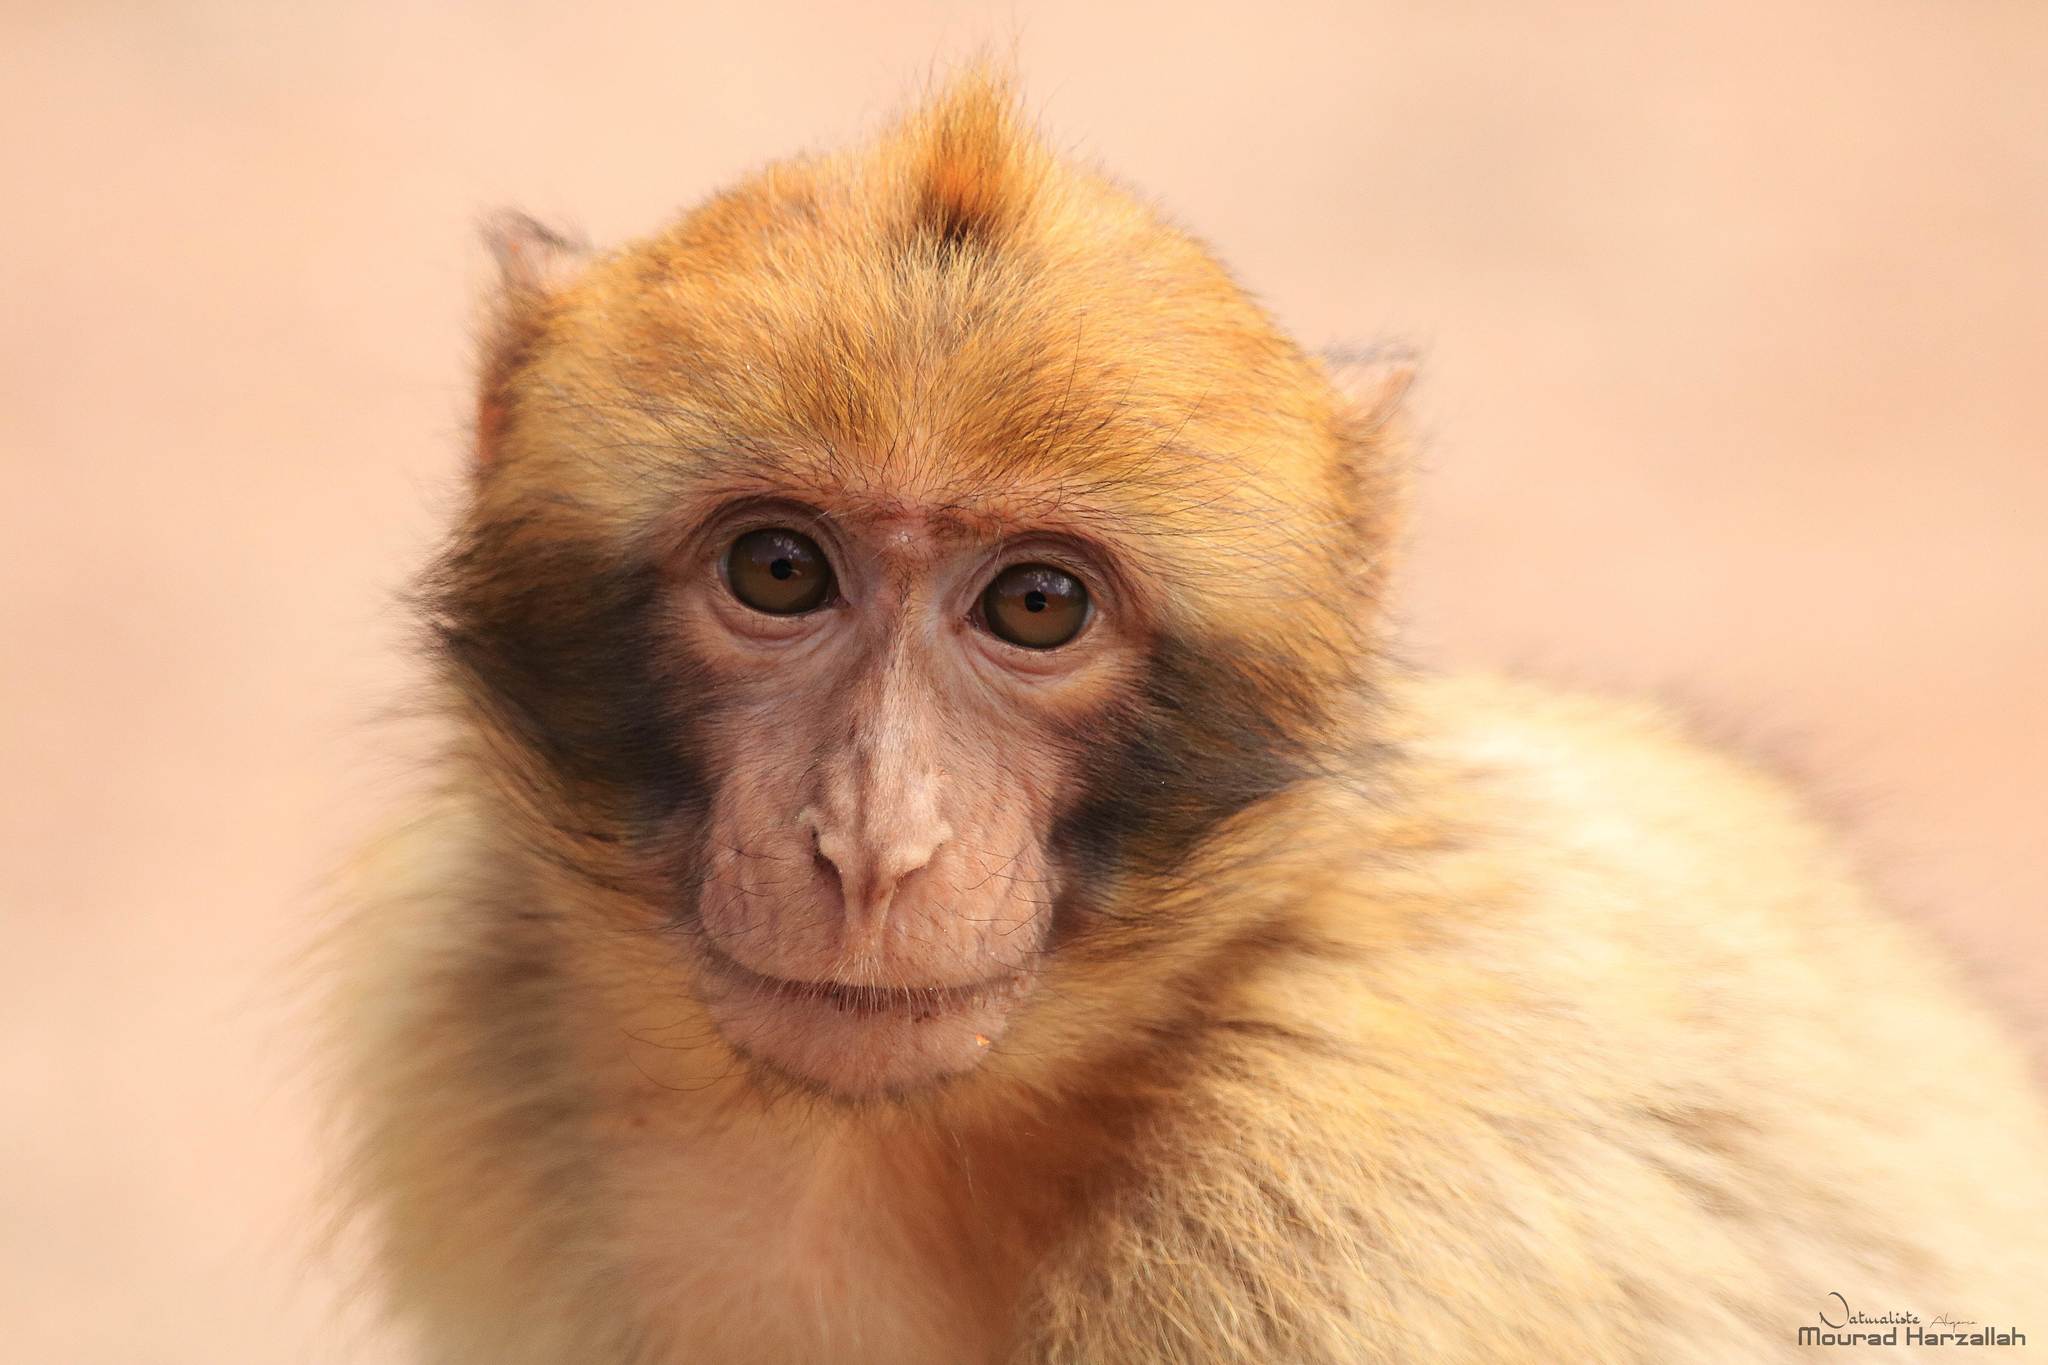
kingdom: Animalia
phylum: Chordata
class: Mammalia
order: Primates
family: Cercopithecidae
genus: Macaca
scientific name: Macaca sylvanus
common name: Barbary macaque
